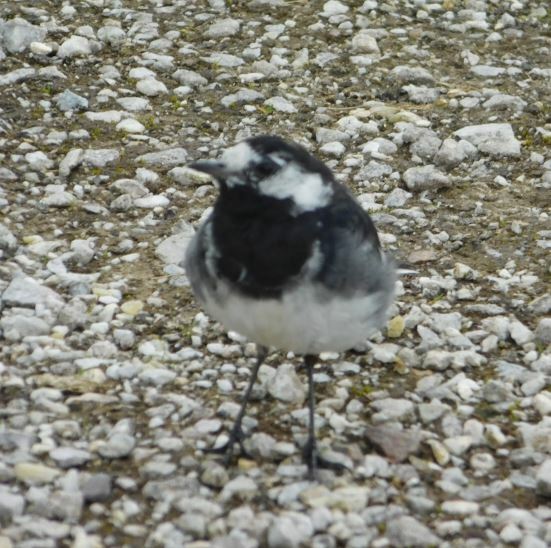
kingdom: Animalia
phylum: Chordata
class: Aves
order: Passeriformes
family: Motacillidae
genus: Motacilla
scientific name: Motacilla alba
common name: White wagtail
